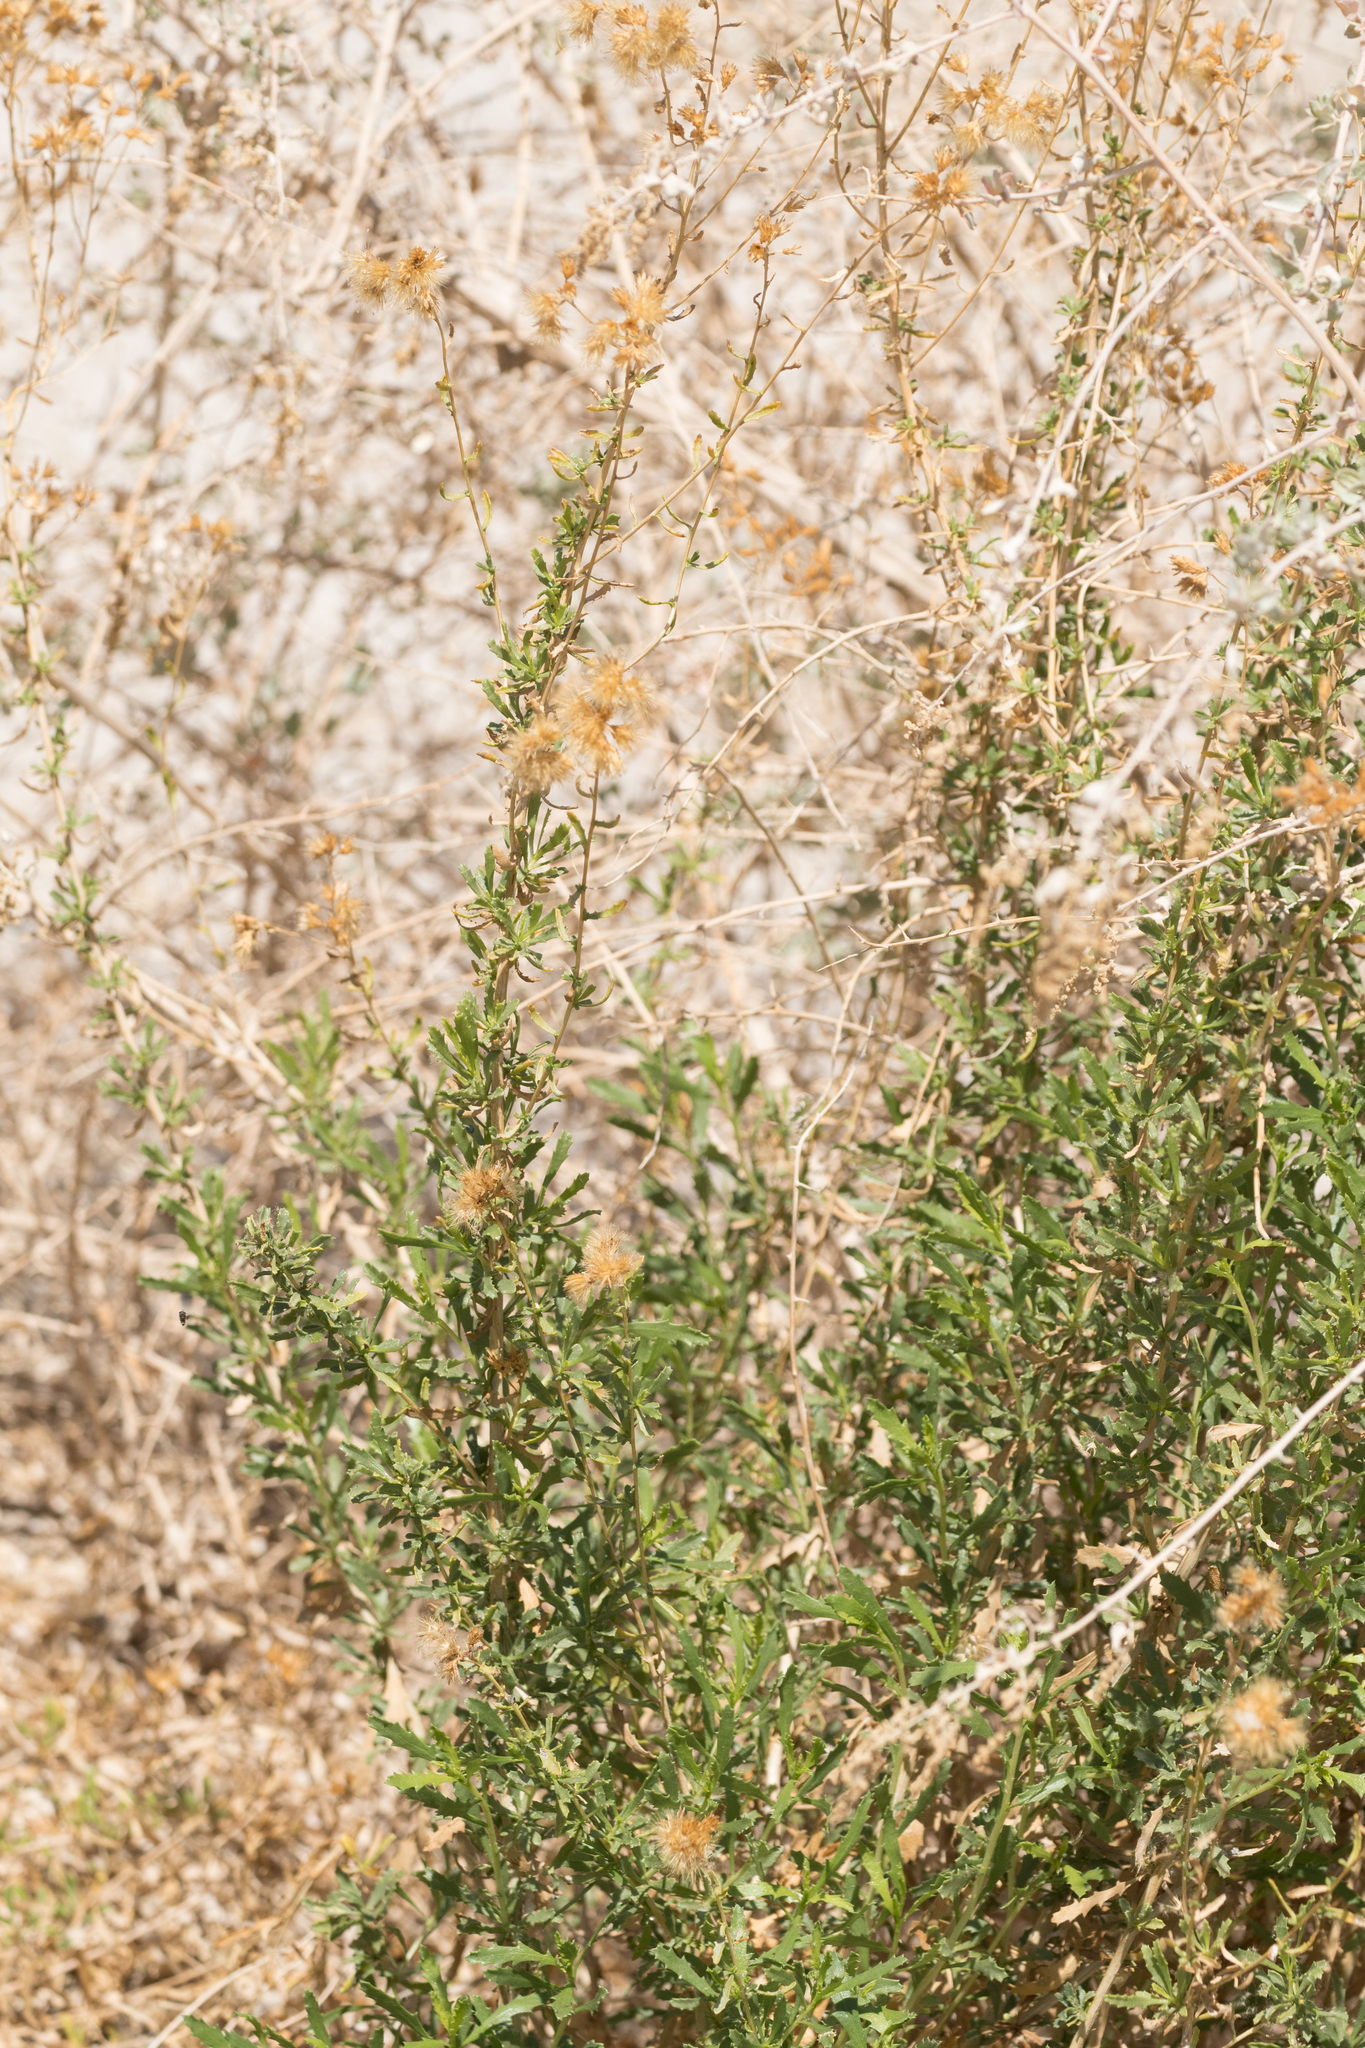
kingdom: Plantae
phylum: Tracheophyta
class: Magnoliopsida
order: Asterales
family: Asteraceae
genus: Isocoma
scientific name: Isocoma acradenia
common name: Alkali jimmyweed
